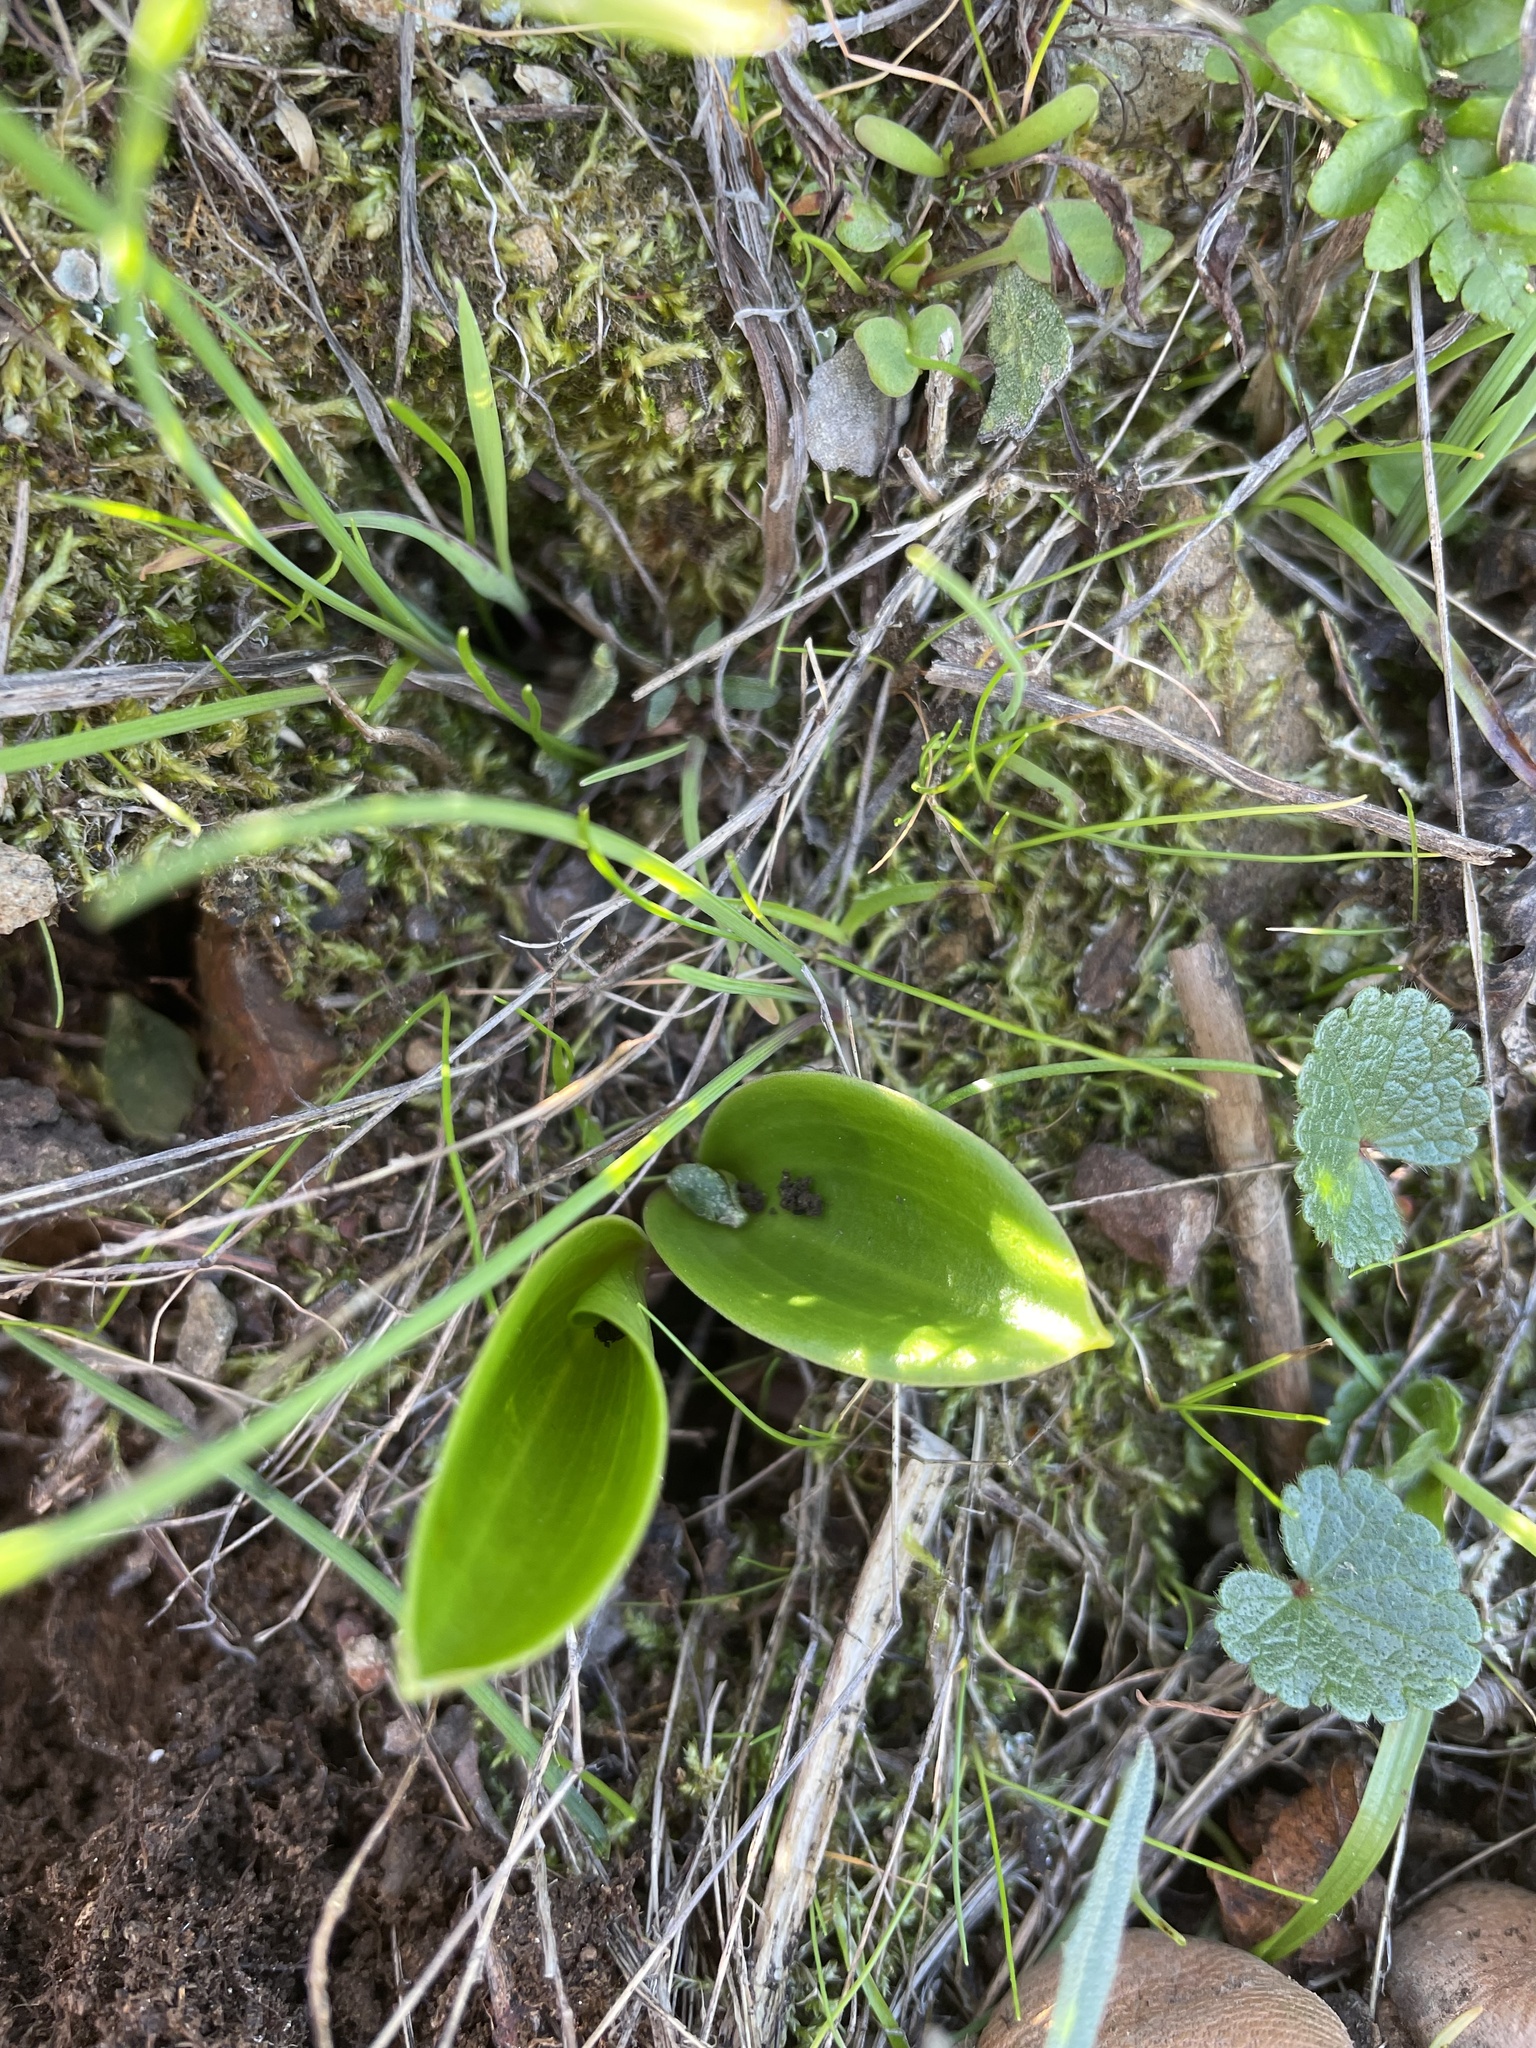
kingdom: Plantae
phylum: Tracheophyta
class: Liliopsida
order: Liliales
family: Liliaceae
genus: Fritillaria
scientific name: Fritillaria affinis
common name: Ojai fritillary
